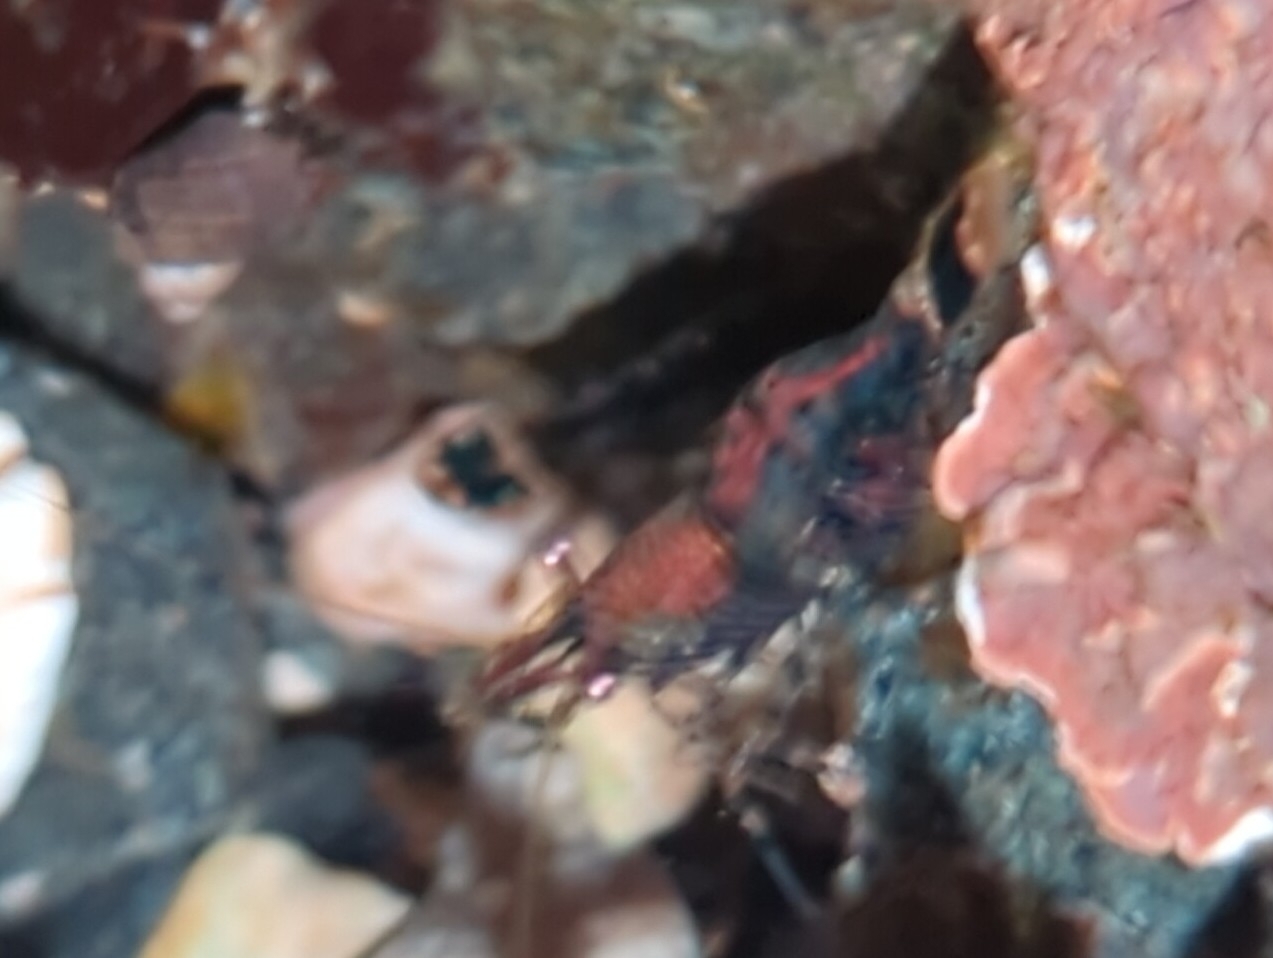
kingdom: Animalia
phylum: Arthropoda
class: Malacostraca
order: Decapoda
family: Thoridae
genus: Heptacarpus
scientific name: Heptacarpus sitchensis
